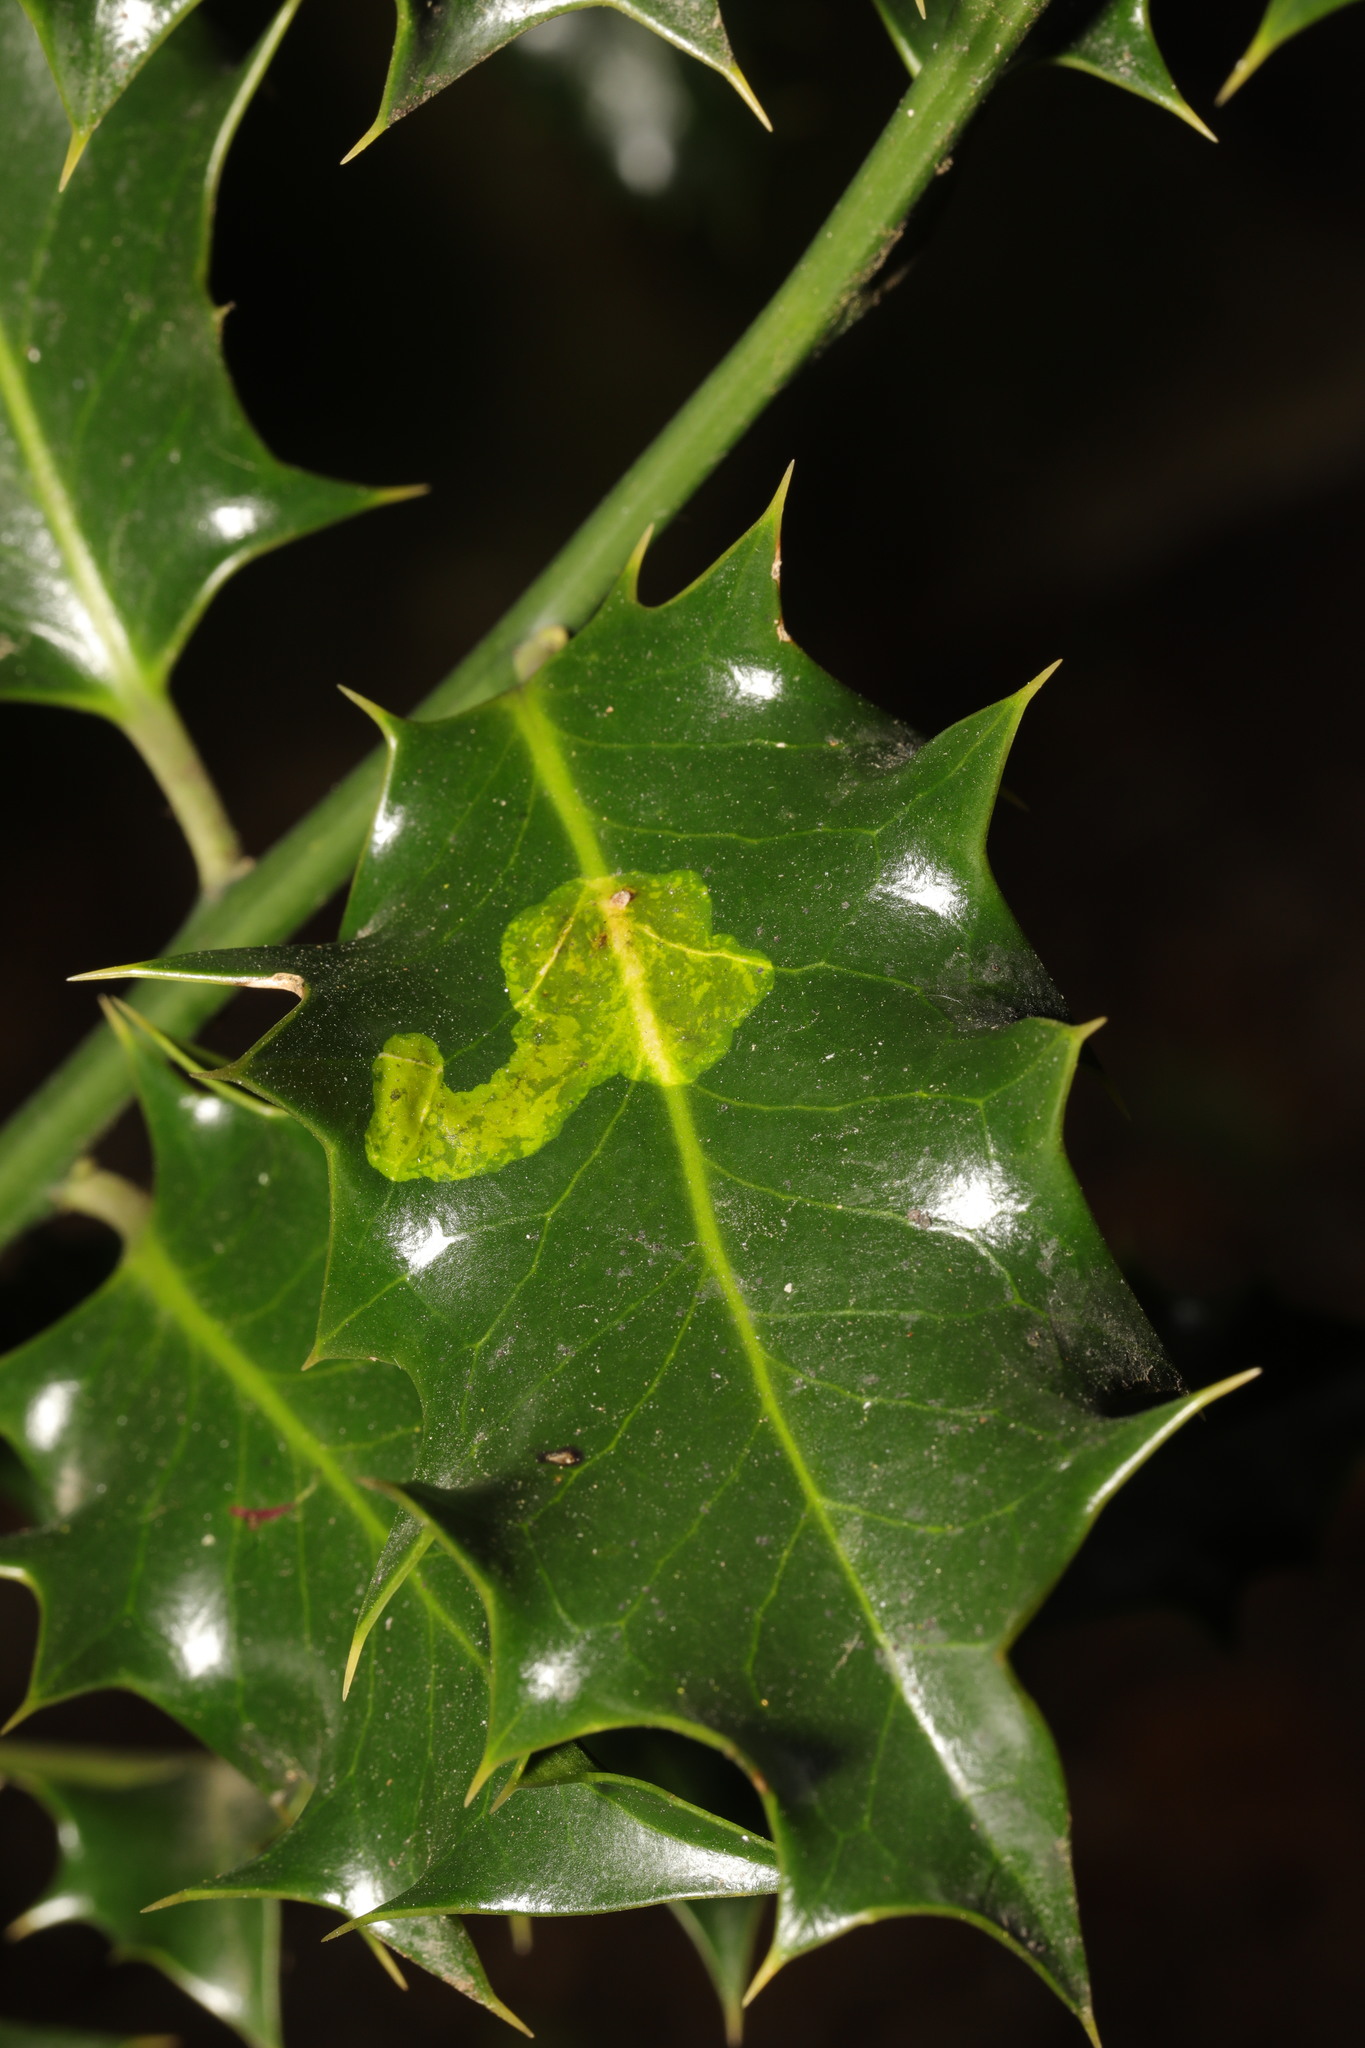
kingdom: Animalia
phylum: Arthropoda
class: Insecta
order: Diptera
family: Agromyzidae
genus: Phytomyza
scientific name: Phytomyza ilicis
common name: Holly leafminer
